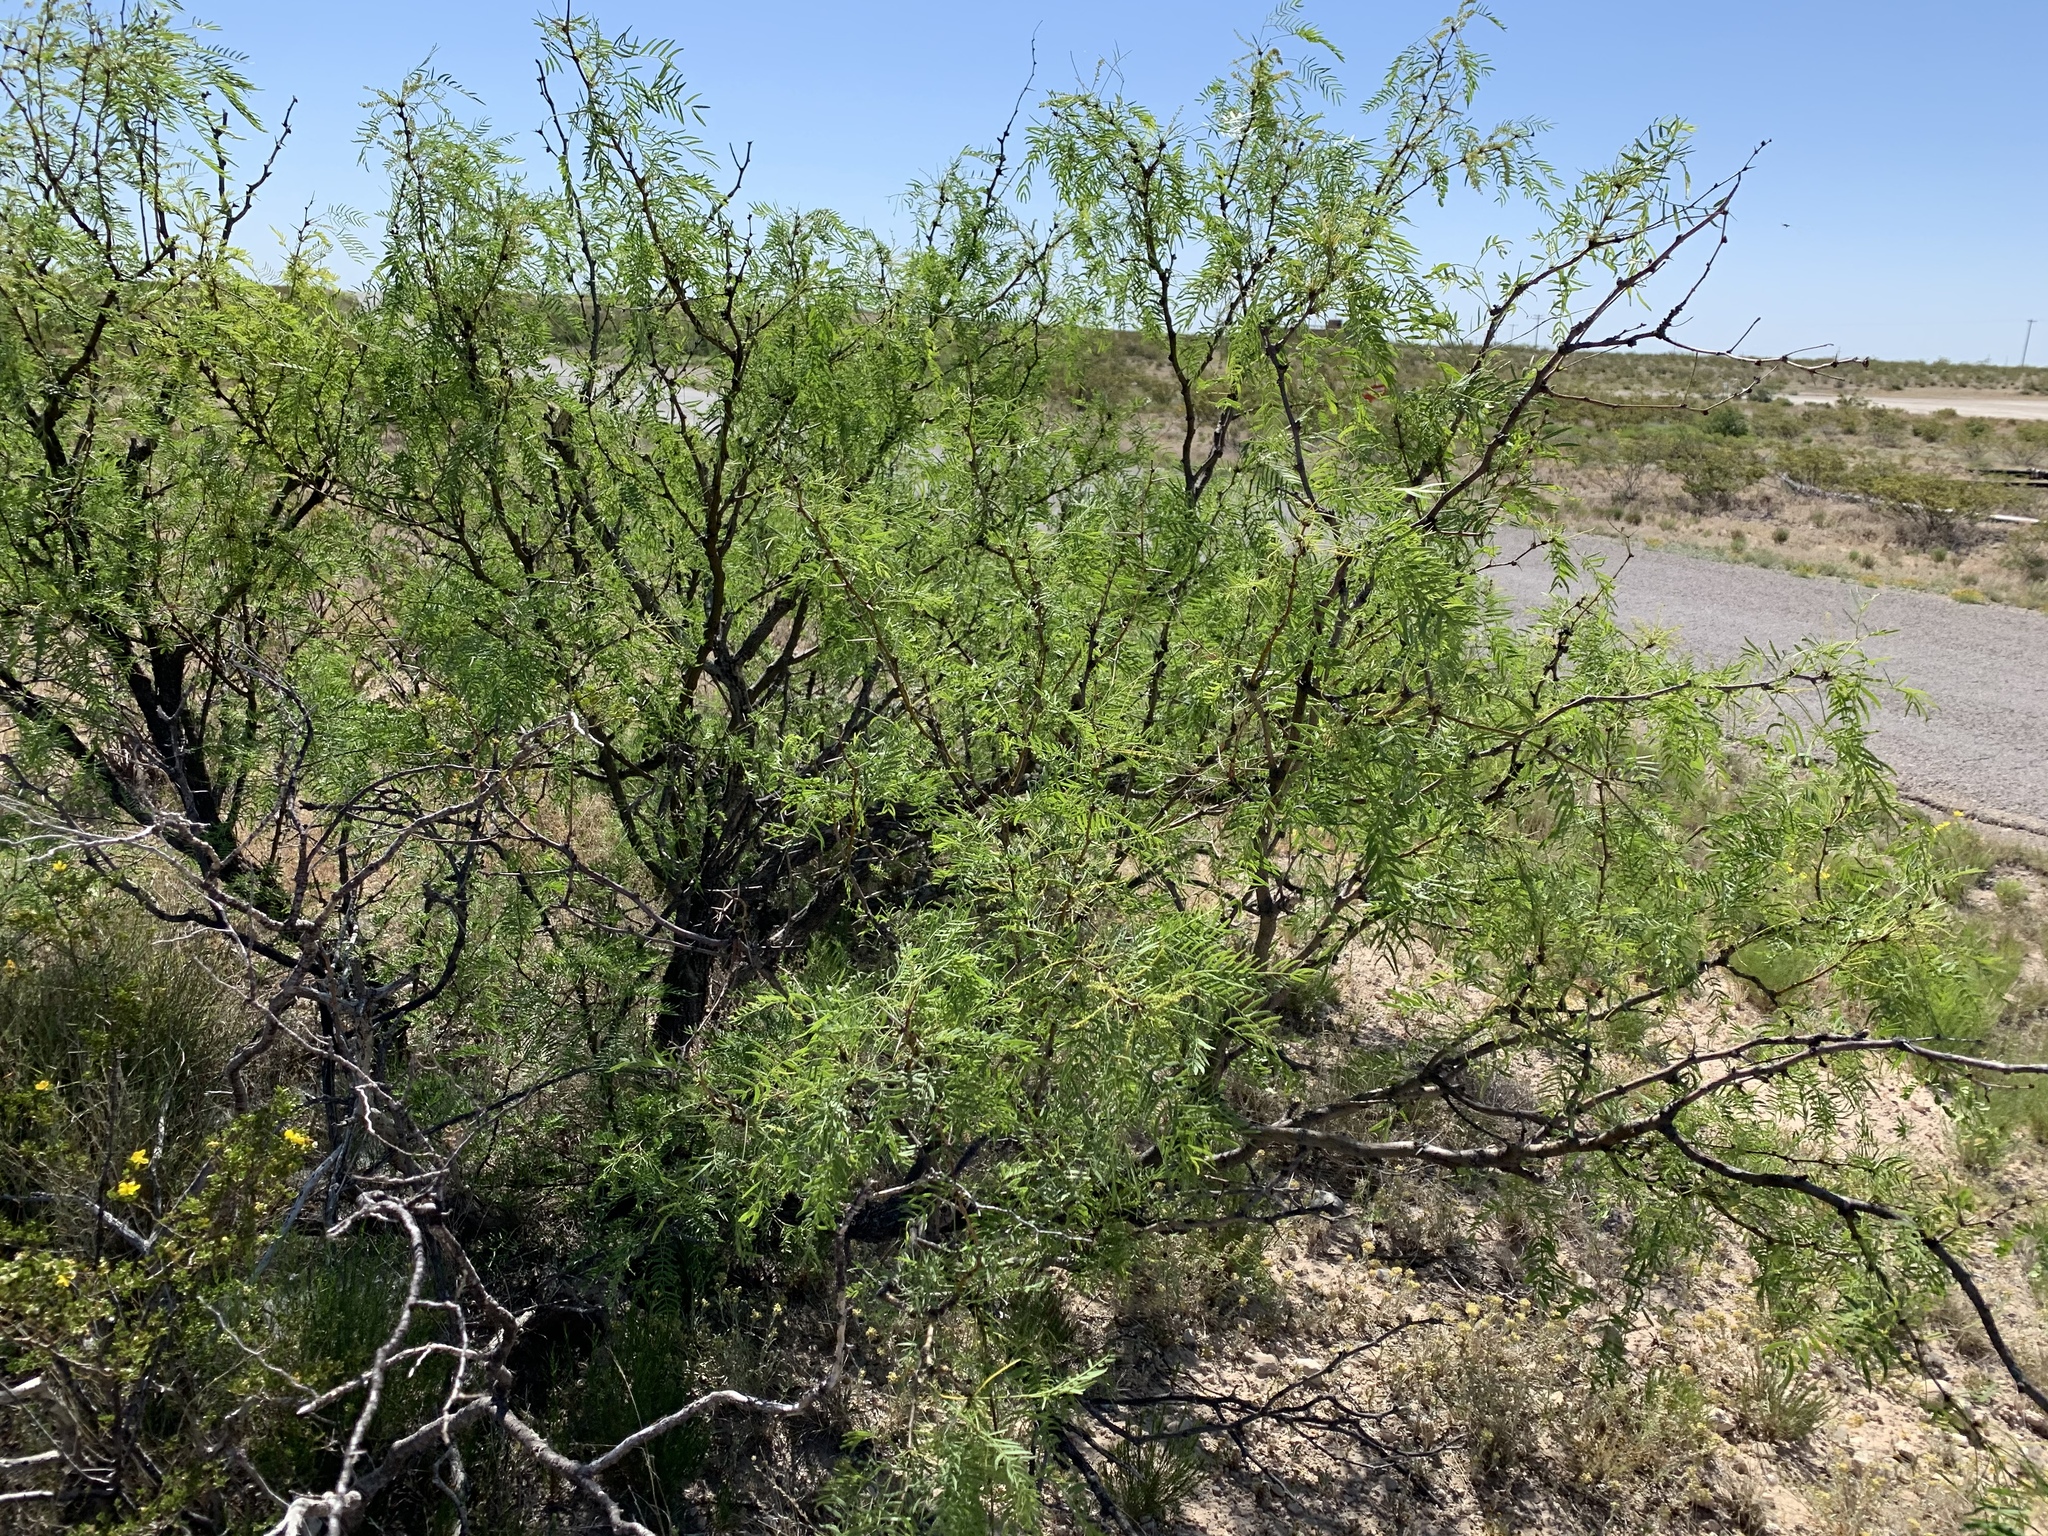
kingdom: Plantae
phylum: Tracheophyta
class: Magnoliopsida
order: Fabales
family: Fabaceae
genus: Prosopis
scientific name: Prosopis glandulosa
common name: Honey mesquite
